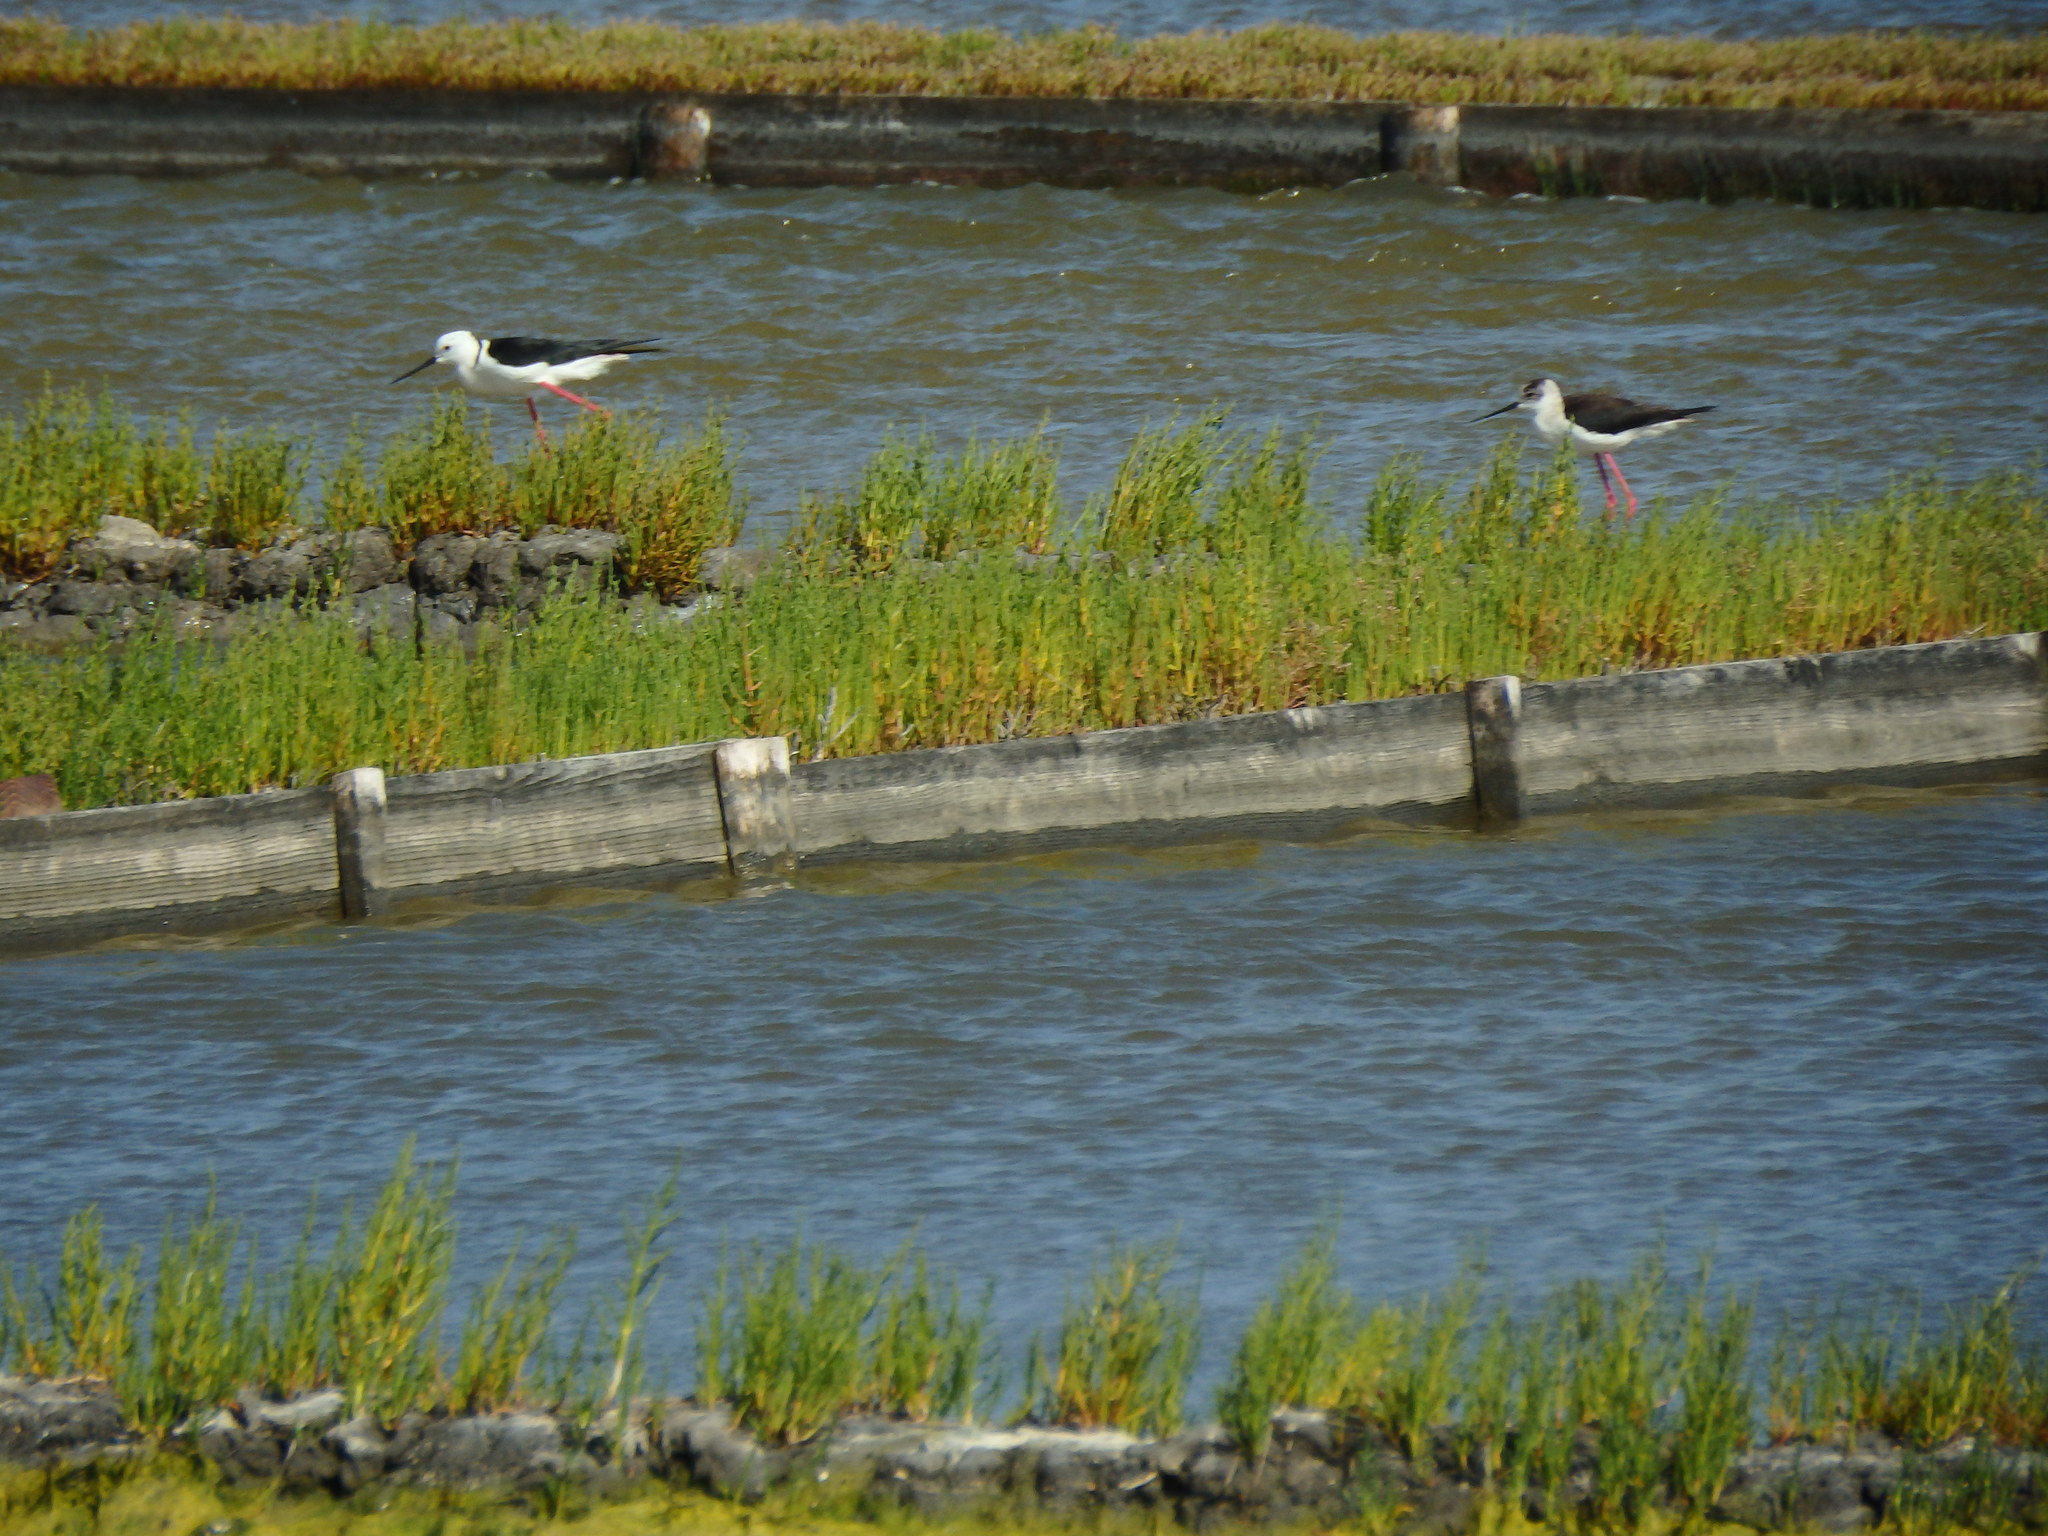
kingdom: Animalia
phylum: Chordata
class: Aves
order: Charadriiformes
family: Recurvirostridae
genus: Himantopus
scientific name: Himantopus himantopus
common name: Black-winged stilt
